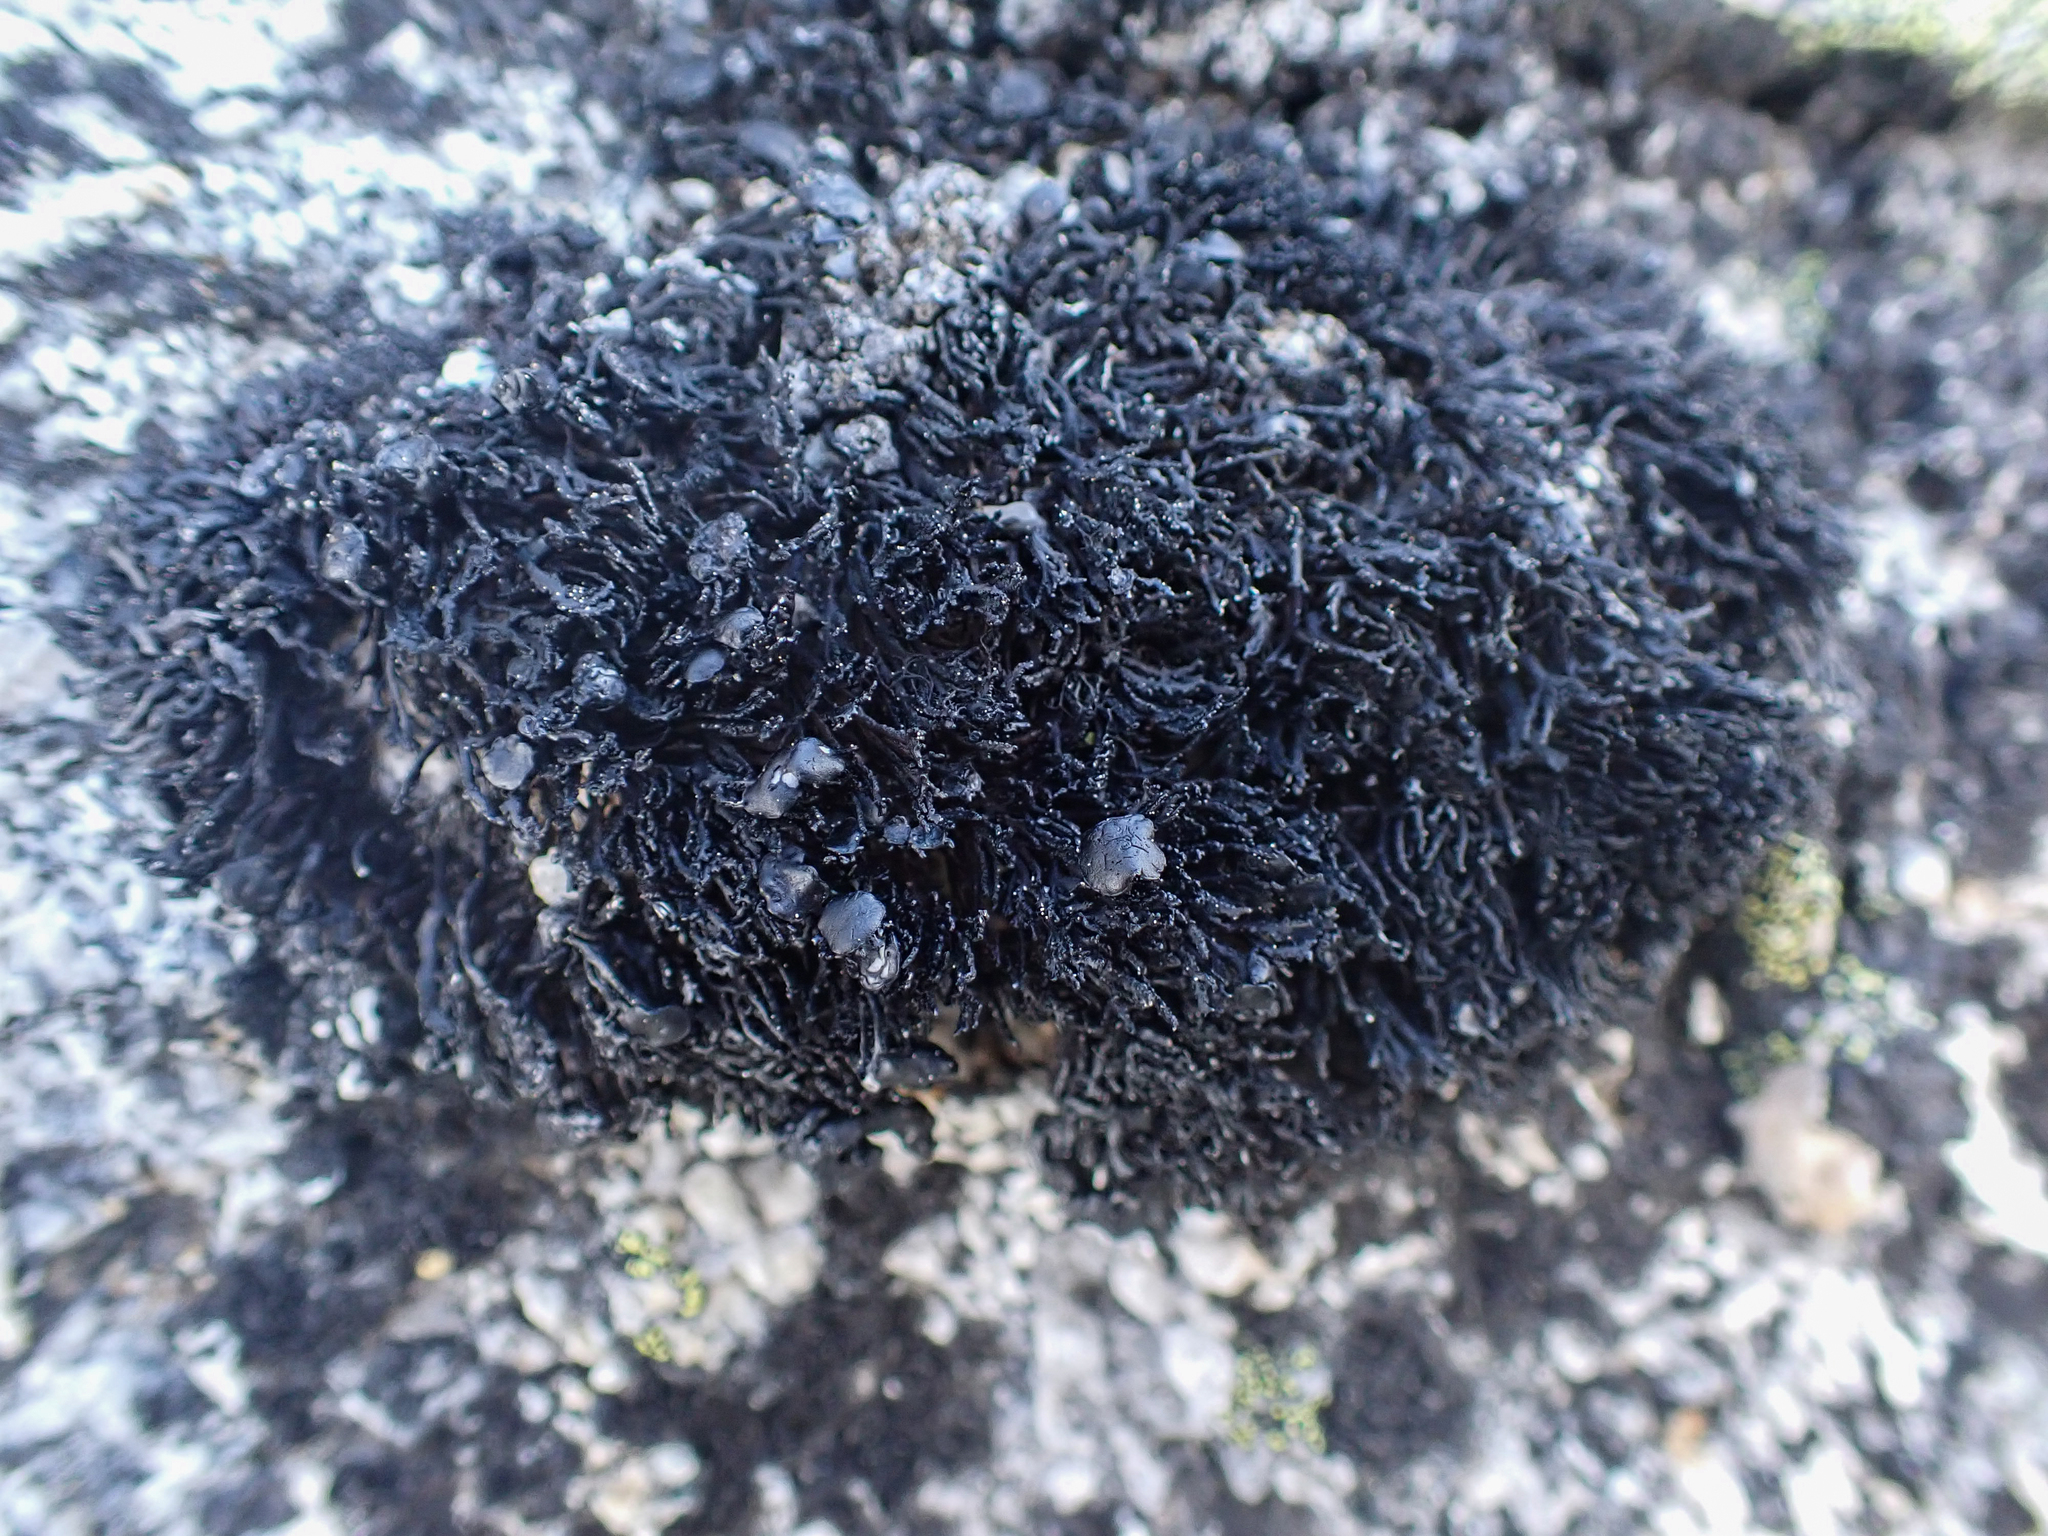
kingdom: Fungi
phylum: Ascomycota
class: Lecanoromycetes
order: Lecanorales
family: Parmeliaceae
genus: Cornicularia
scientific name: Cornicularia normoerica
